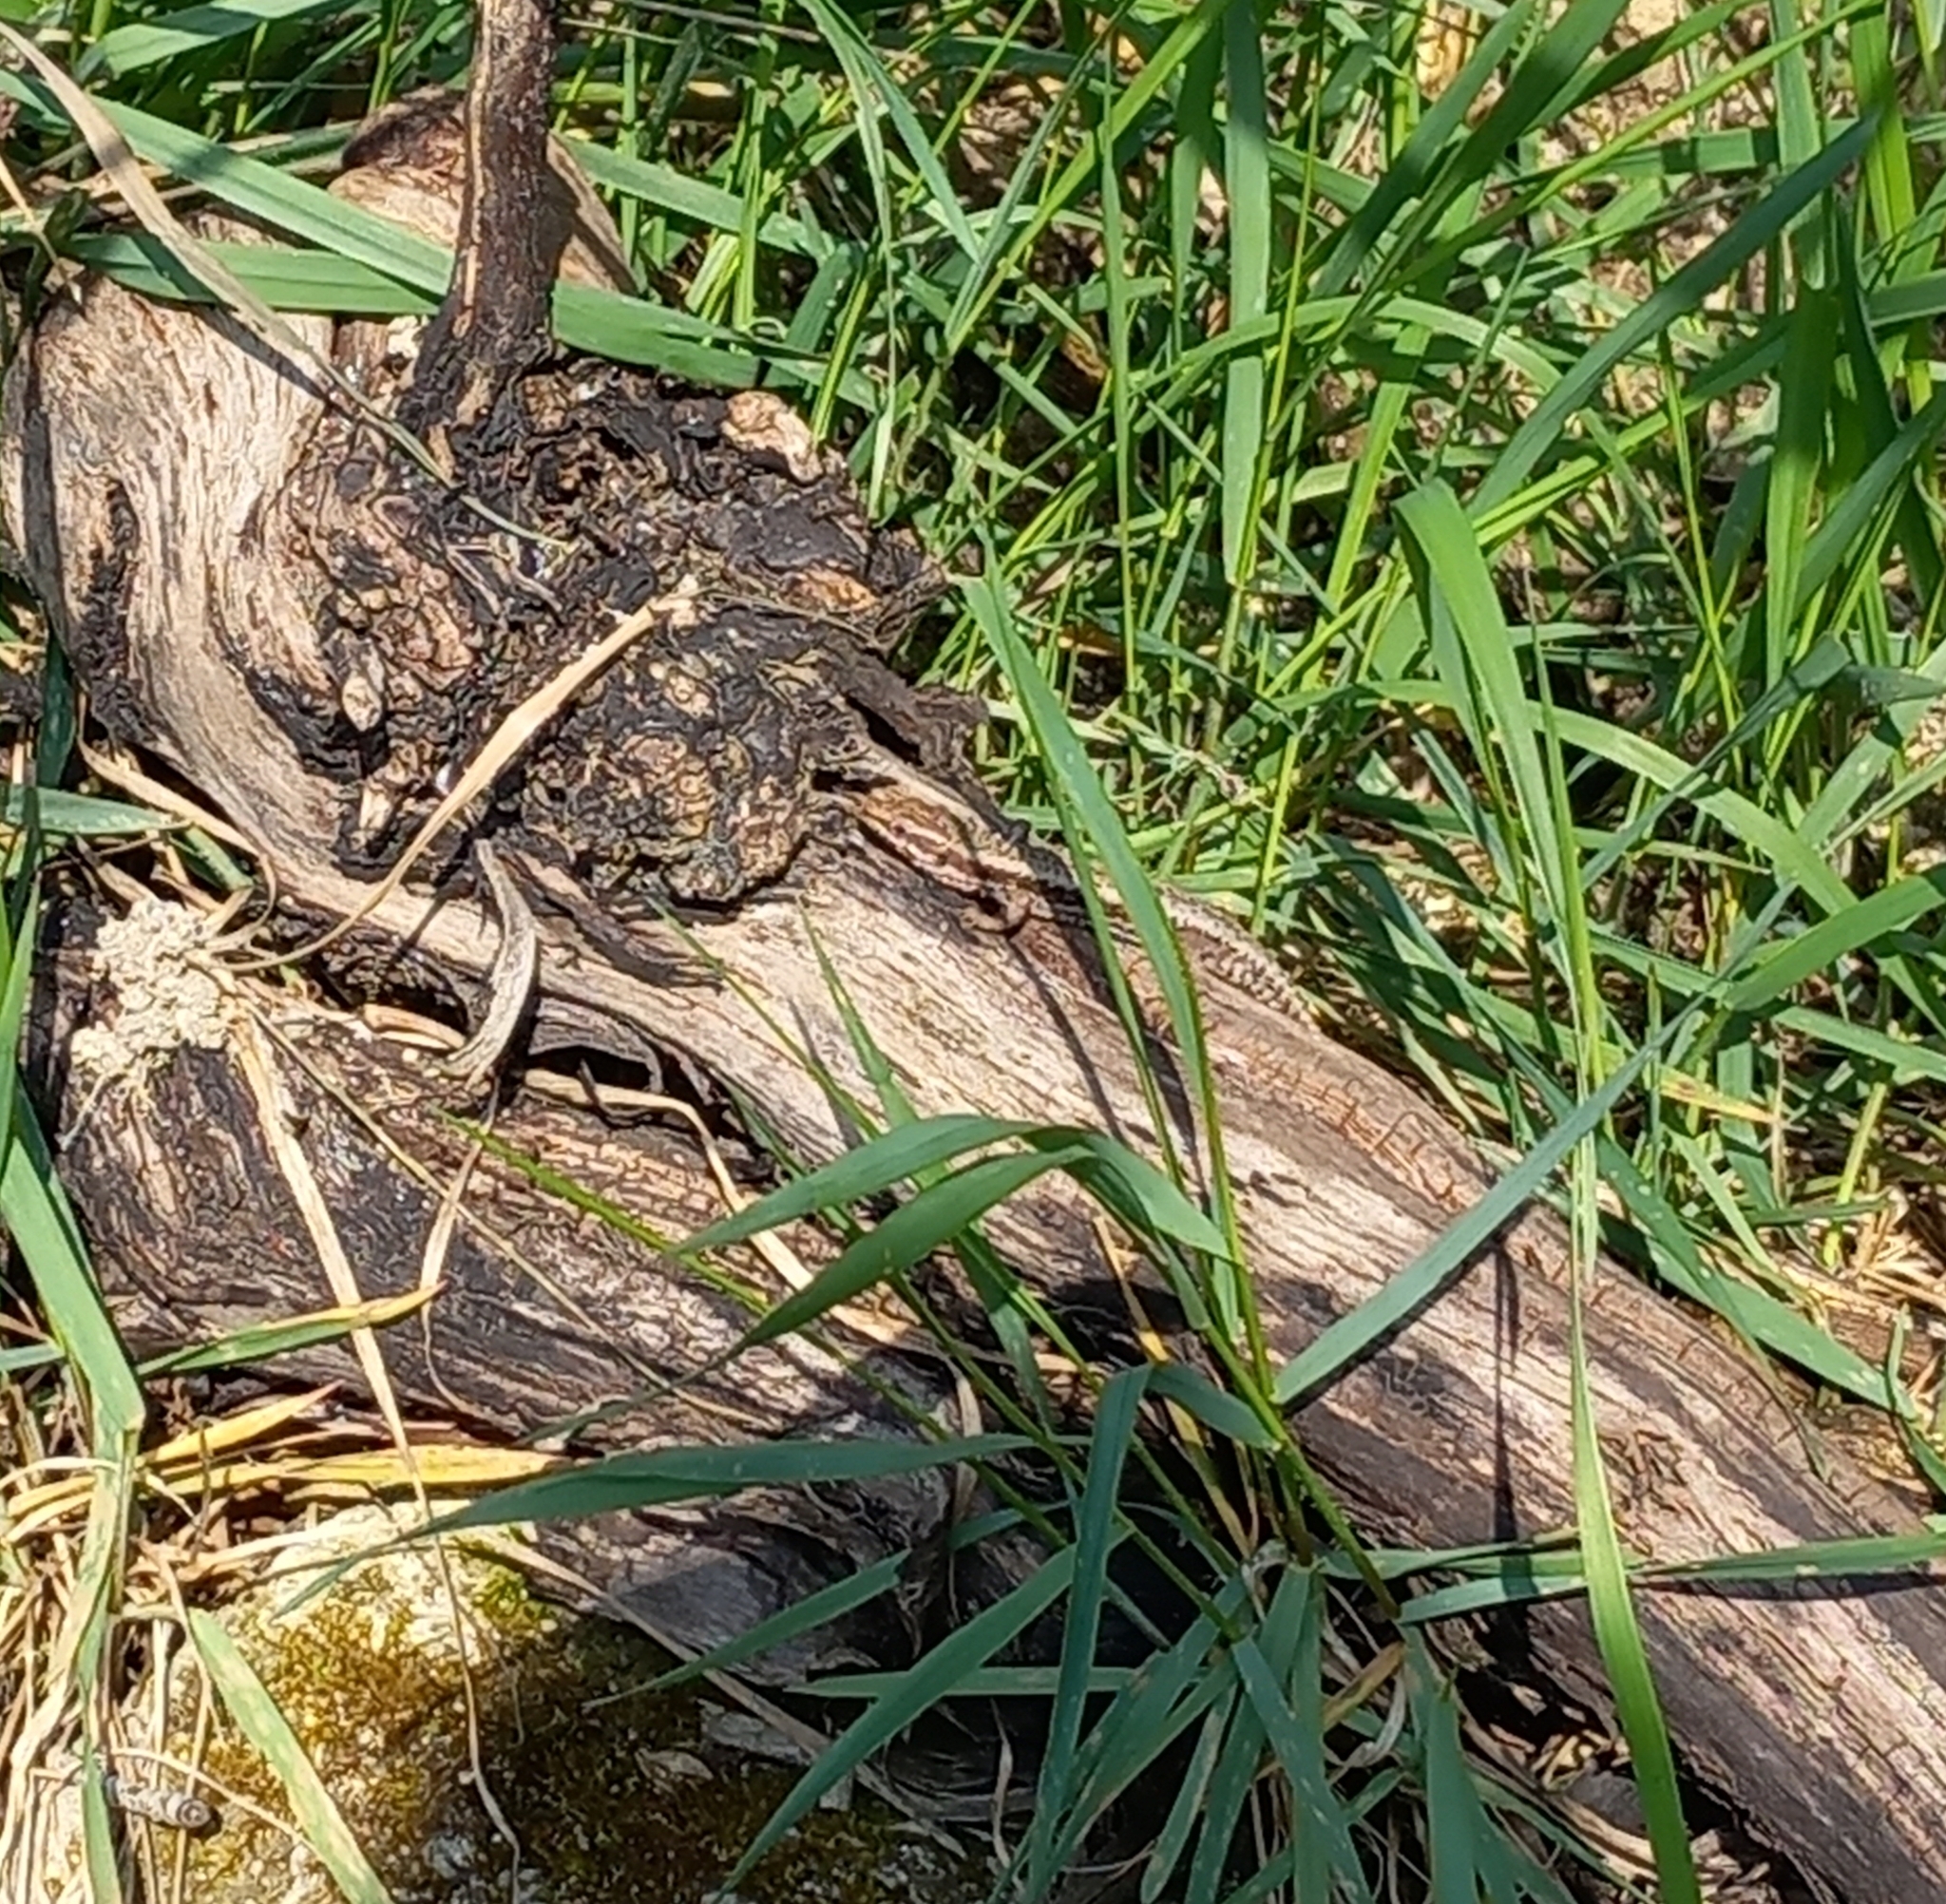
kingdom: Animalia
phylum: Chordata
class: Squamata
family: Lacertidae
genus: Podarcis
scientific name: Podarcis muralis
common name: Common wall lizard
